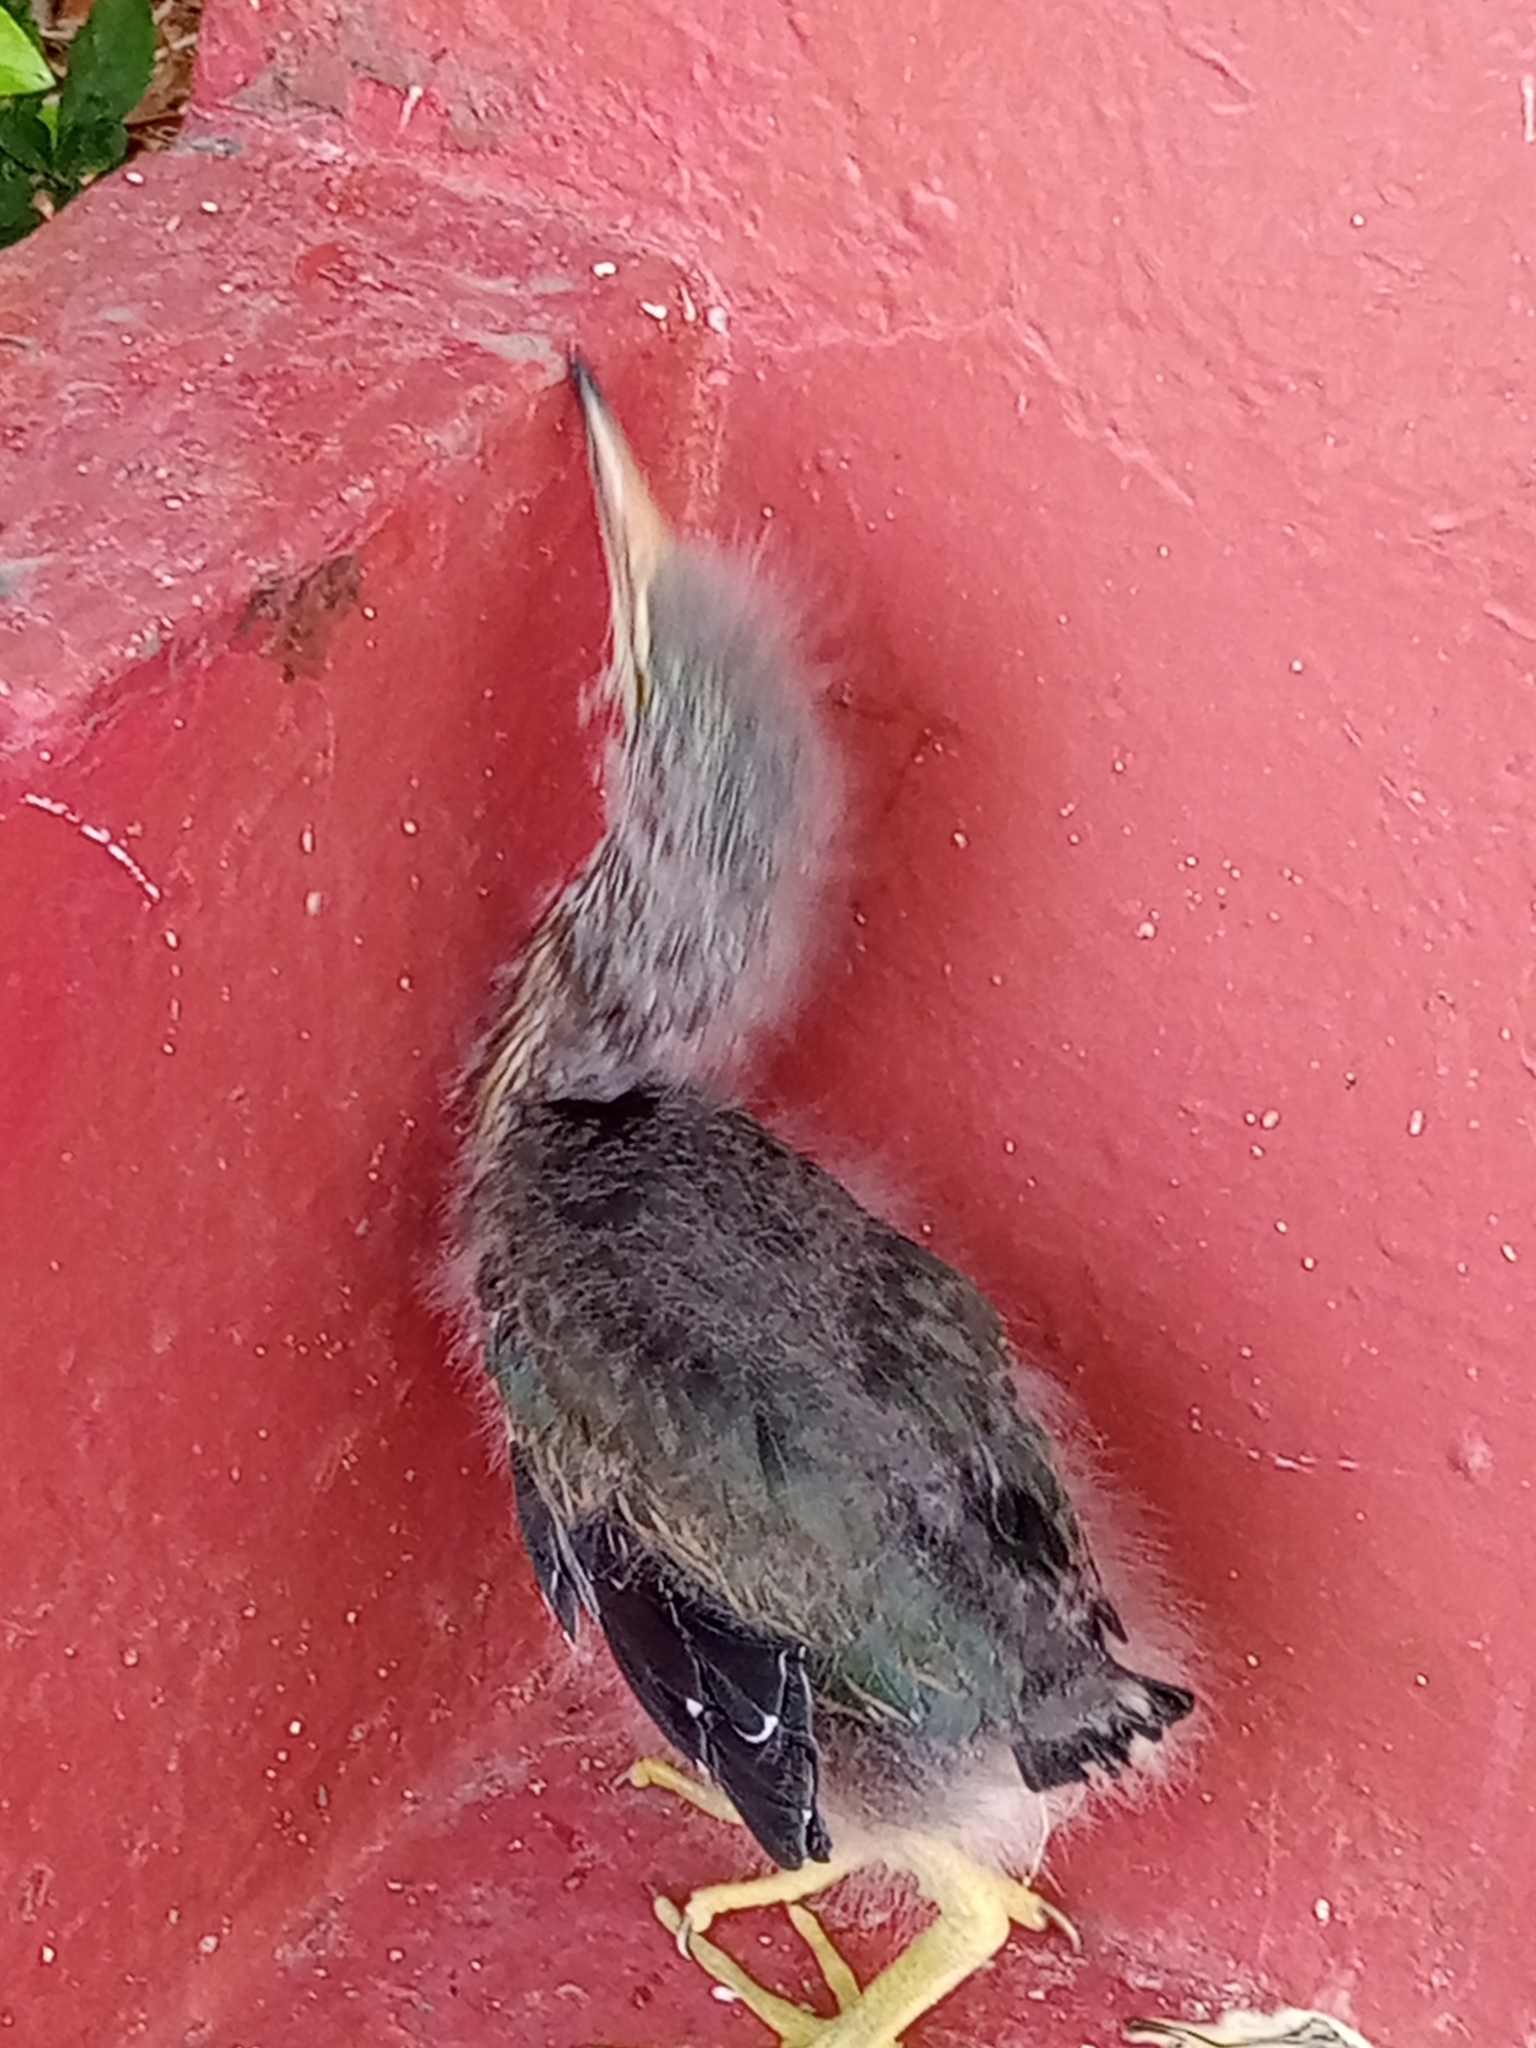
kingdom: Animalia
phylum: Chordata
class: Aves
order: Pelecaniformes
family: Ardeidae
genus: Butorides
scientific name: Butorides virescens
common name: Green heron
